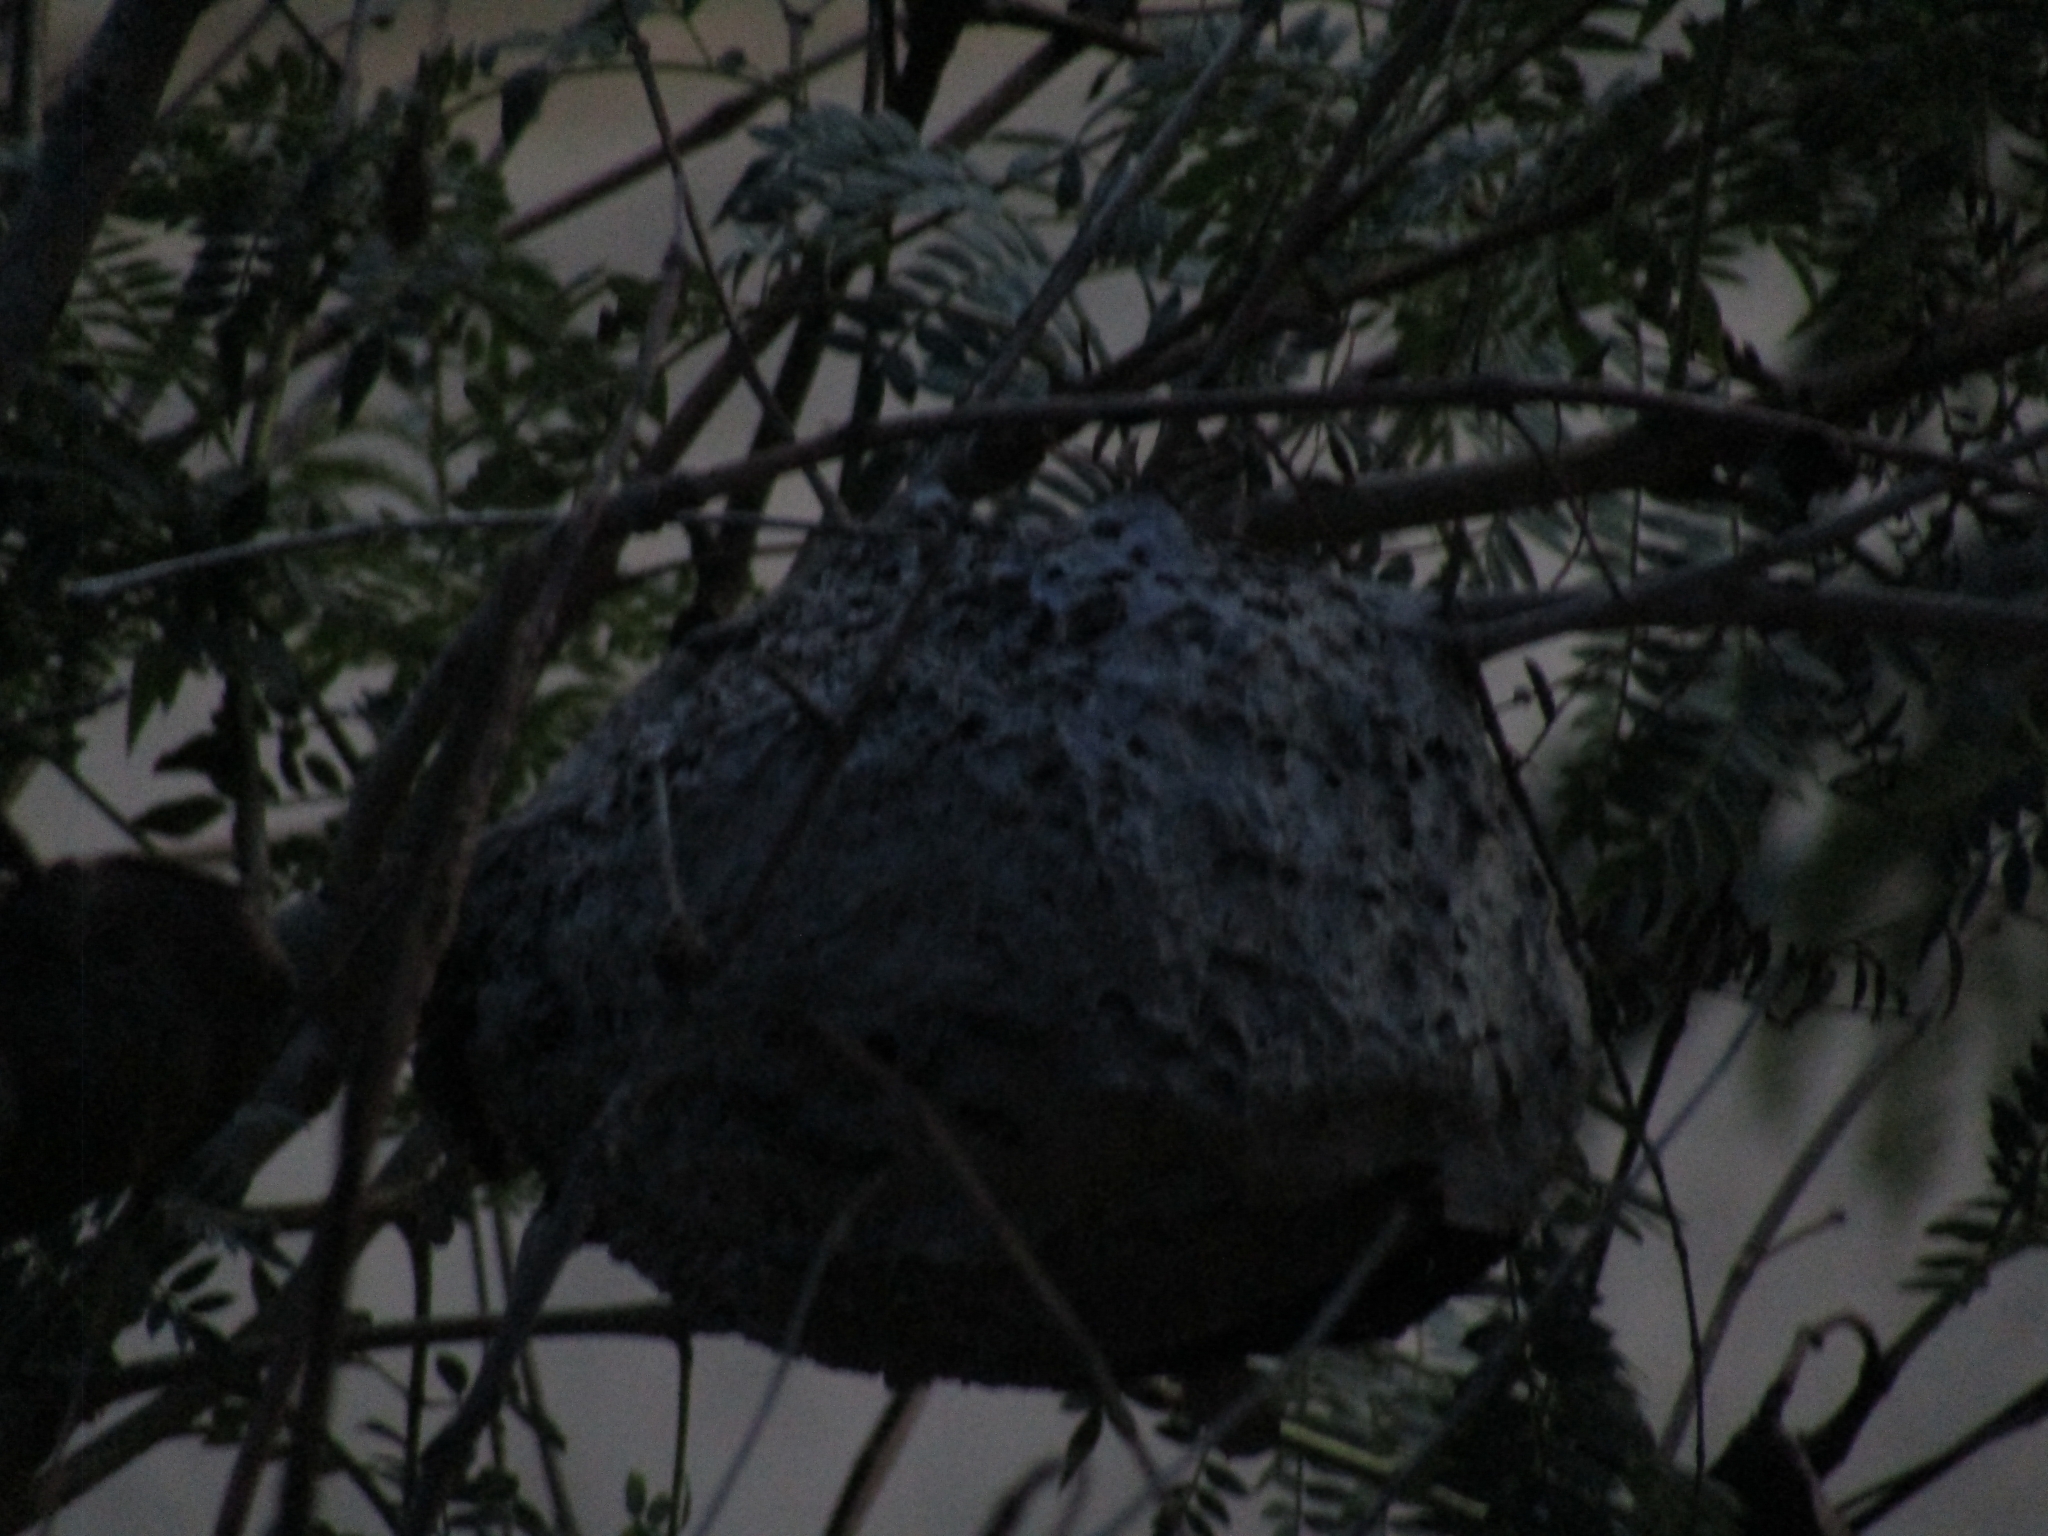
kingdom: Animalia
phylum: Arthropoda
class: Insecta
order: Hymenoptera
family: Eumenidae
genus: Polybia
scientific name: Polybia scutellaris
